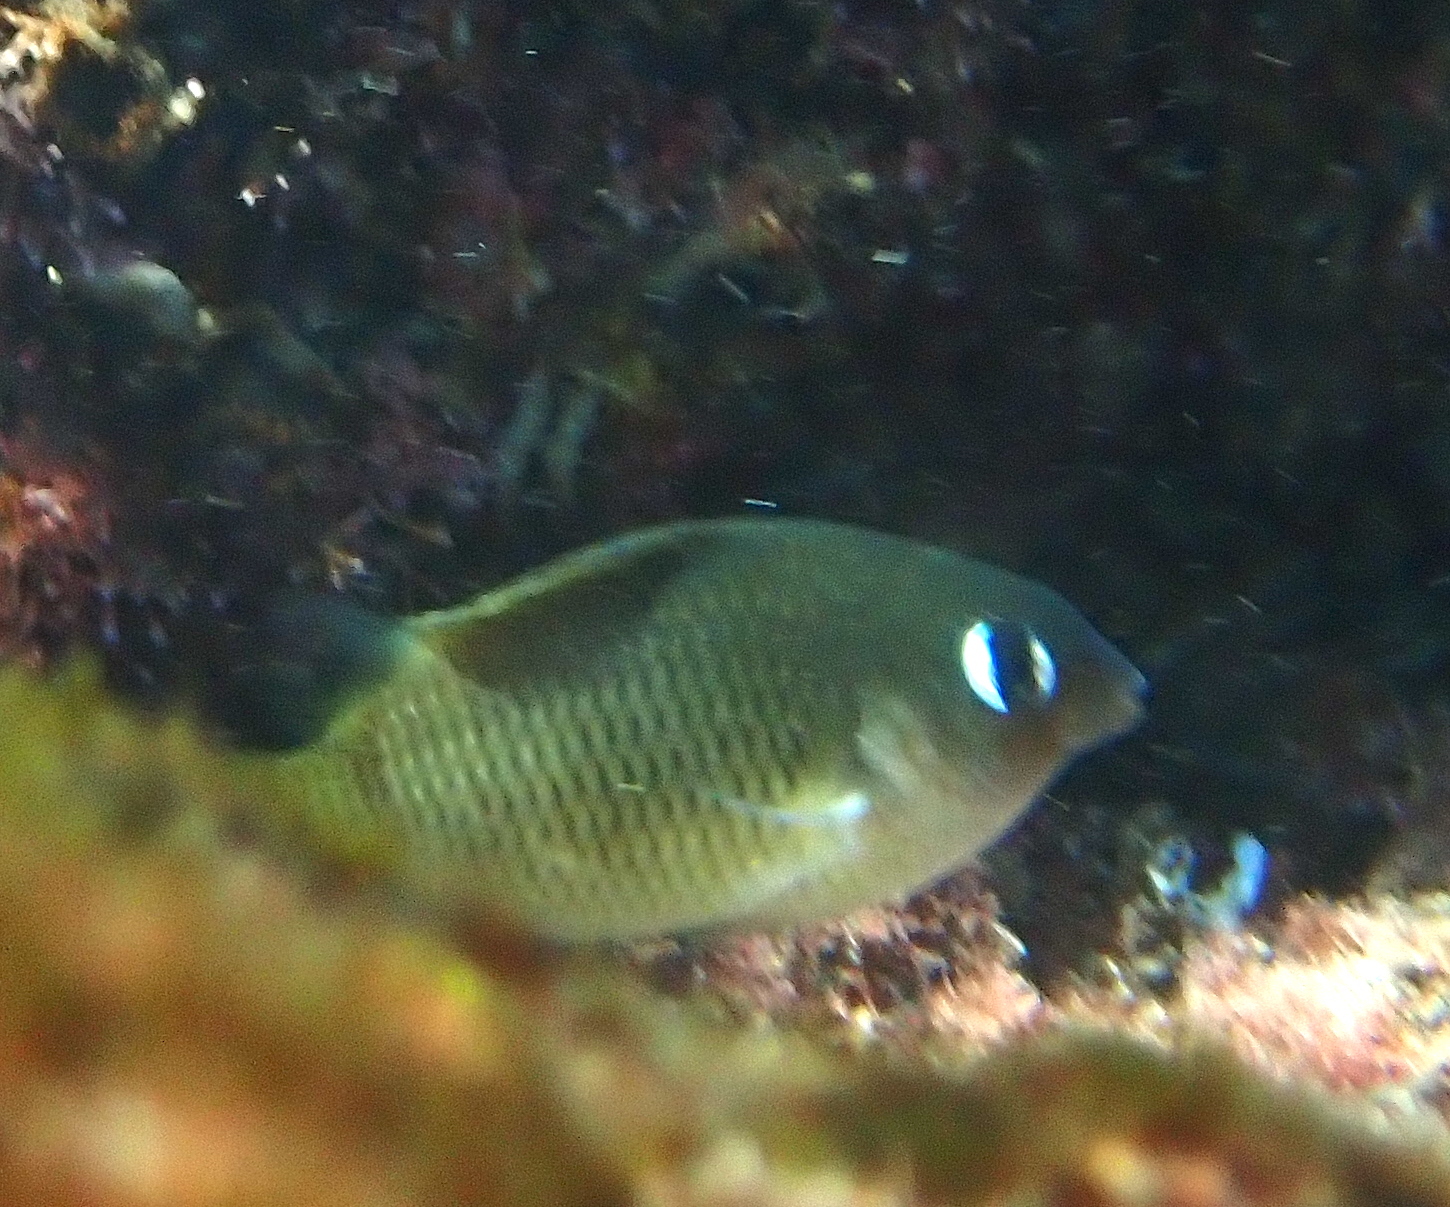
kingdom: Animalia
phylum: Chordata
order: Perciformes
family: Pomacentridae
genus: Plectroglyphidodon
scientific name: Plectroglyphidodon imparipennis
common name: Brighteye damsel
